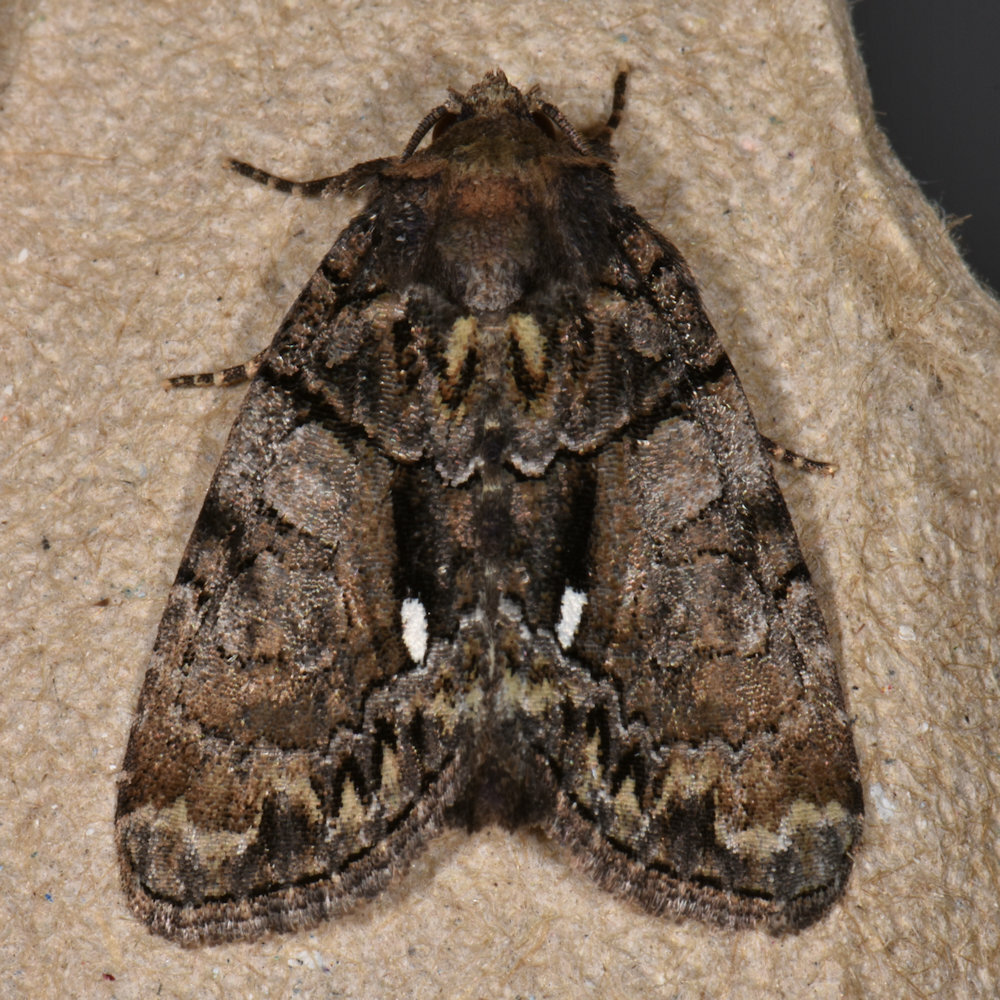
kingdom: Animalia
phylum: Arthropoda
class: Insecta
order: Lepidoptera
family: Noctuidae
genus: Chytonix
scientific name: Chytonix palliatricula
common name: Cloaked marvel
